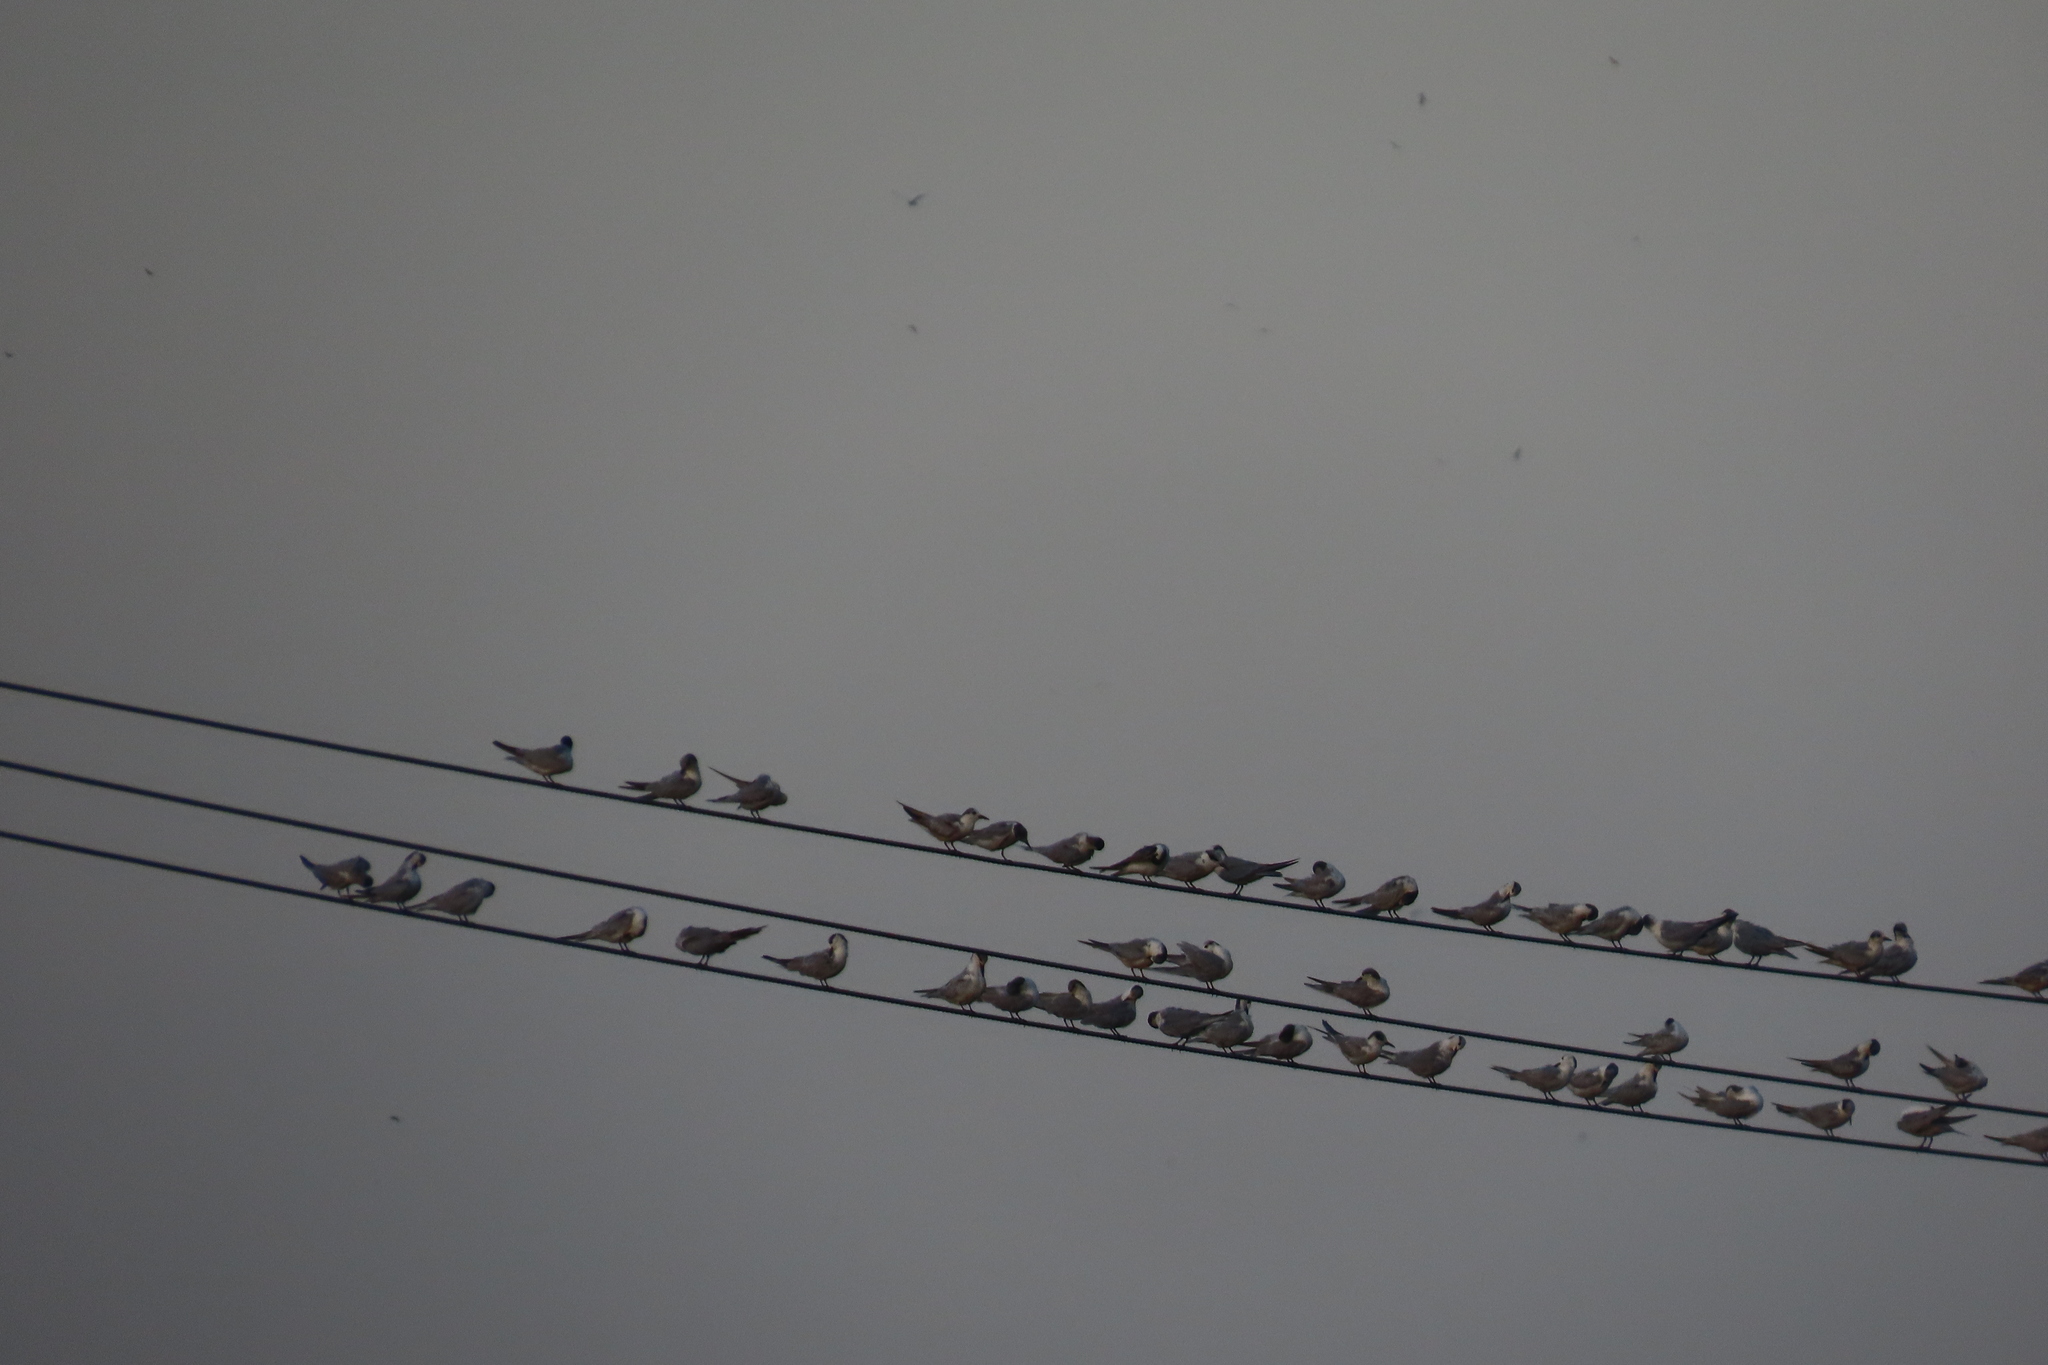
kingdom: Animalia
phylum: Chordata
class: Aves
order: Charadriiformes
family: Laridae
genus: Chlidonias
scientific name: Chlidonias hybrida
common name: Whiskered tern
